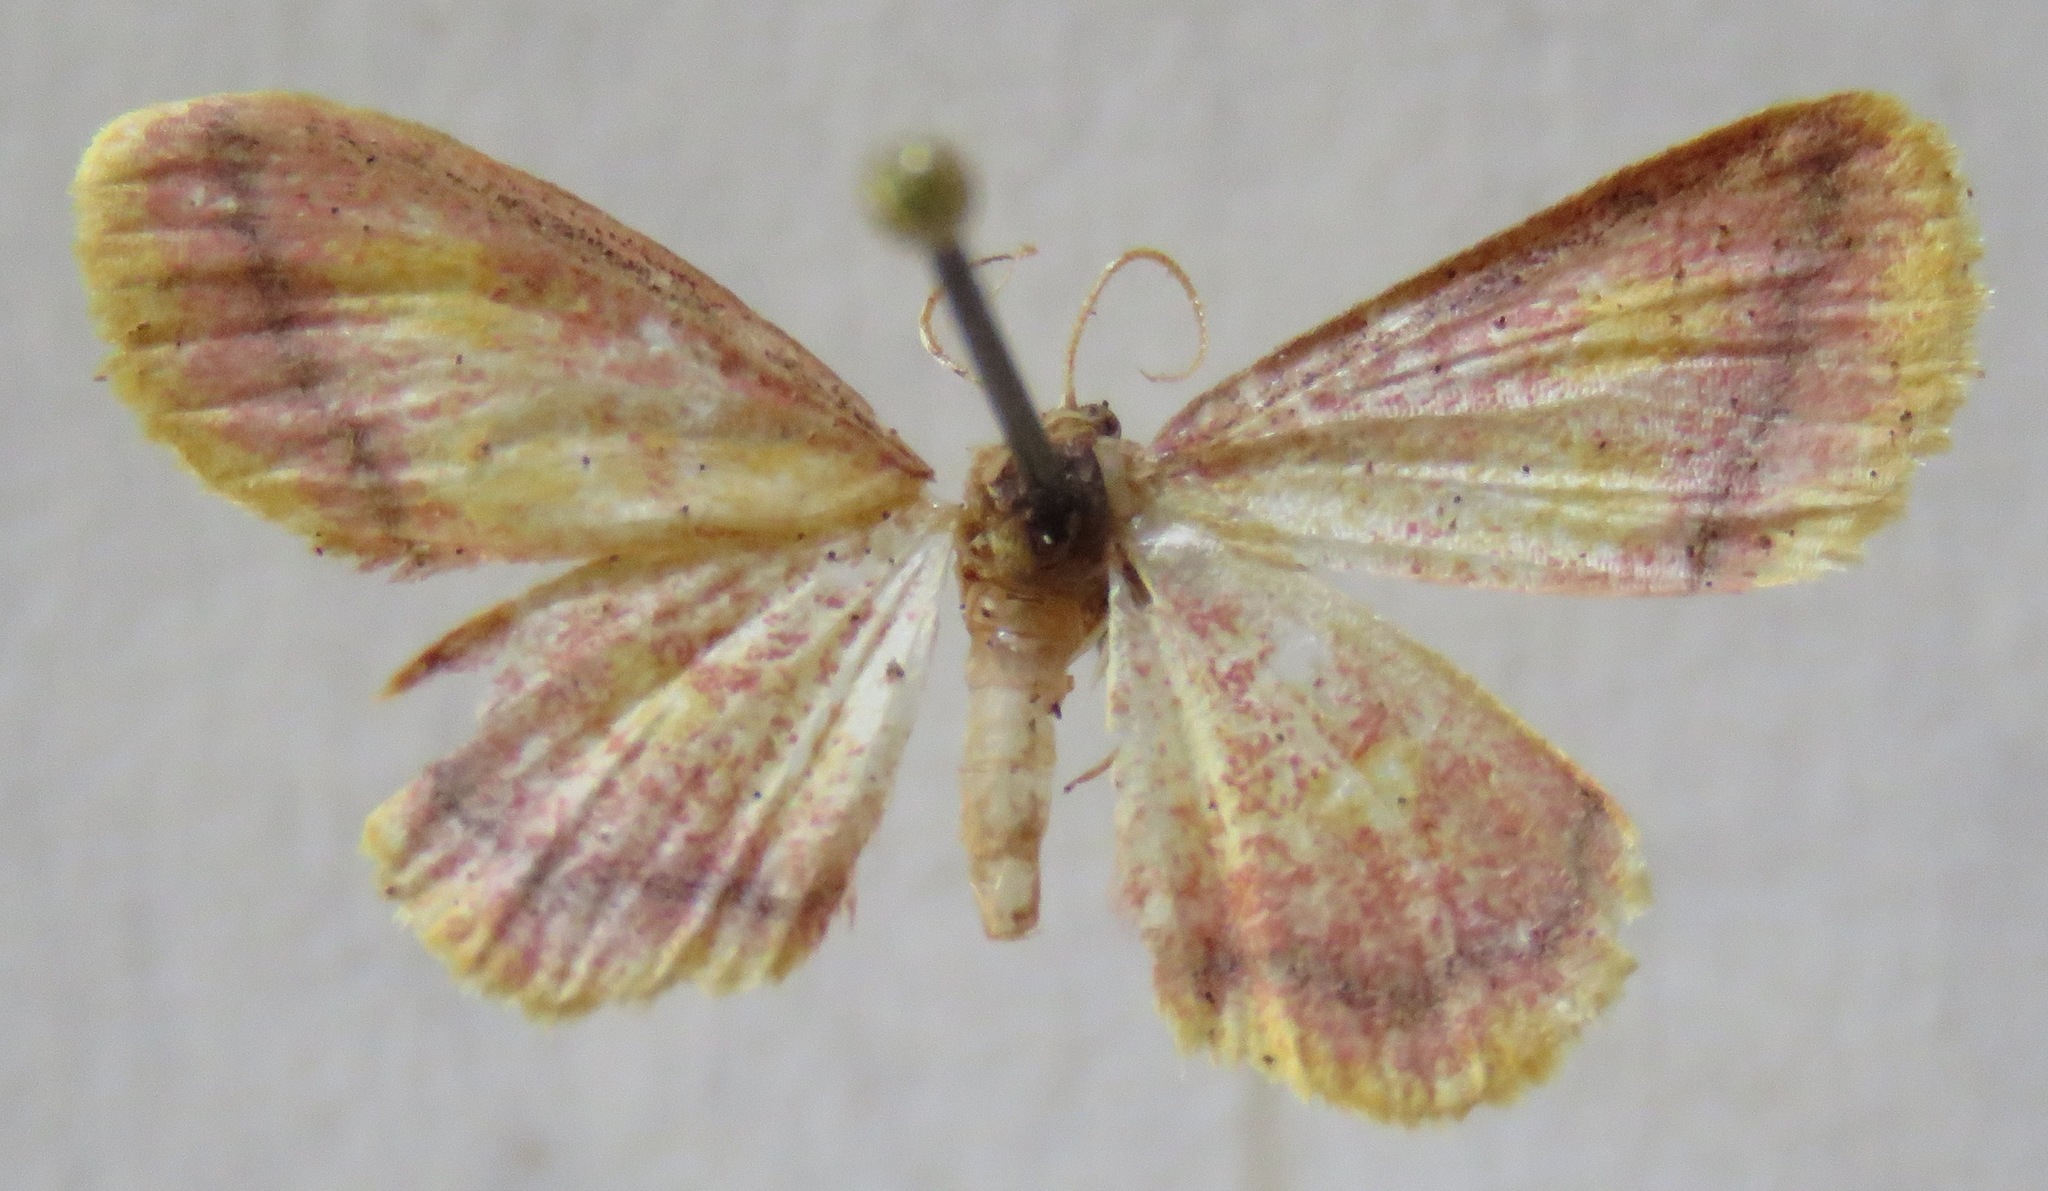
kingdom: Animalia
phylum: Arthropoda
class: Insecta
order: Lepidoptera
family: Geometridae
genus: Idaea
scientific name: Idaea muricata
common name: Purple-bordered gold
